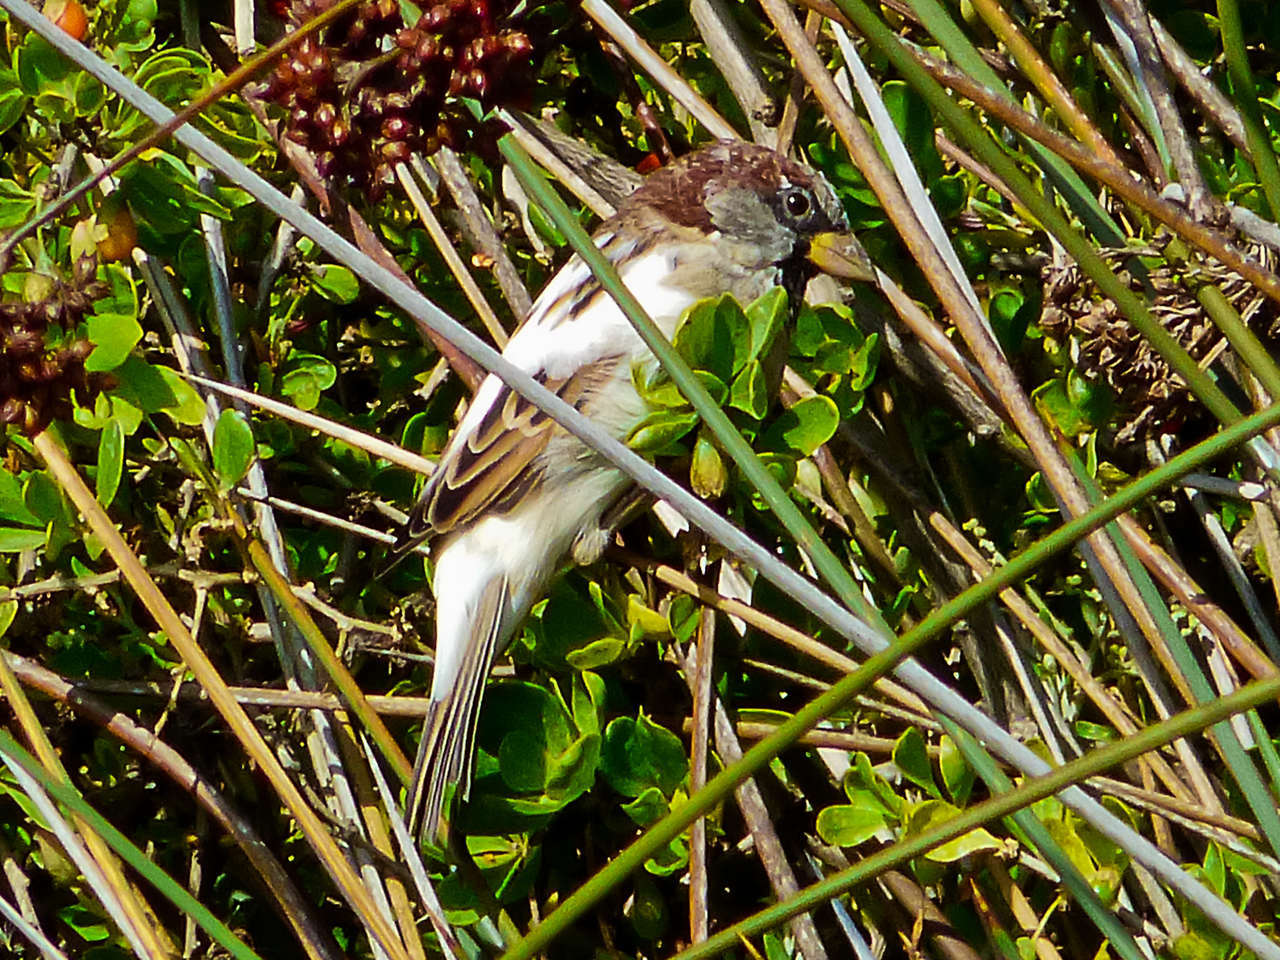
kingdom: Animalia
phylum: Chordata
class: Aves
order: Passeriformes
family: Passeridae
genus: Passer
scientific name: Passer domesticus
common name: House sparrow
